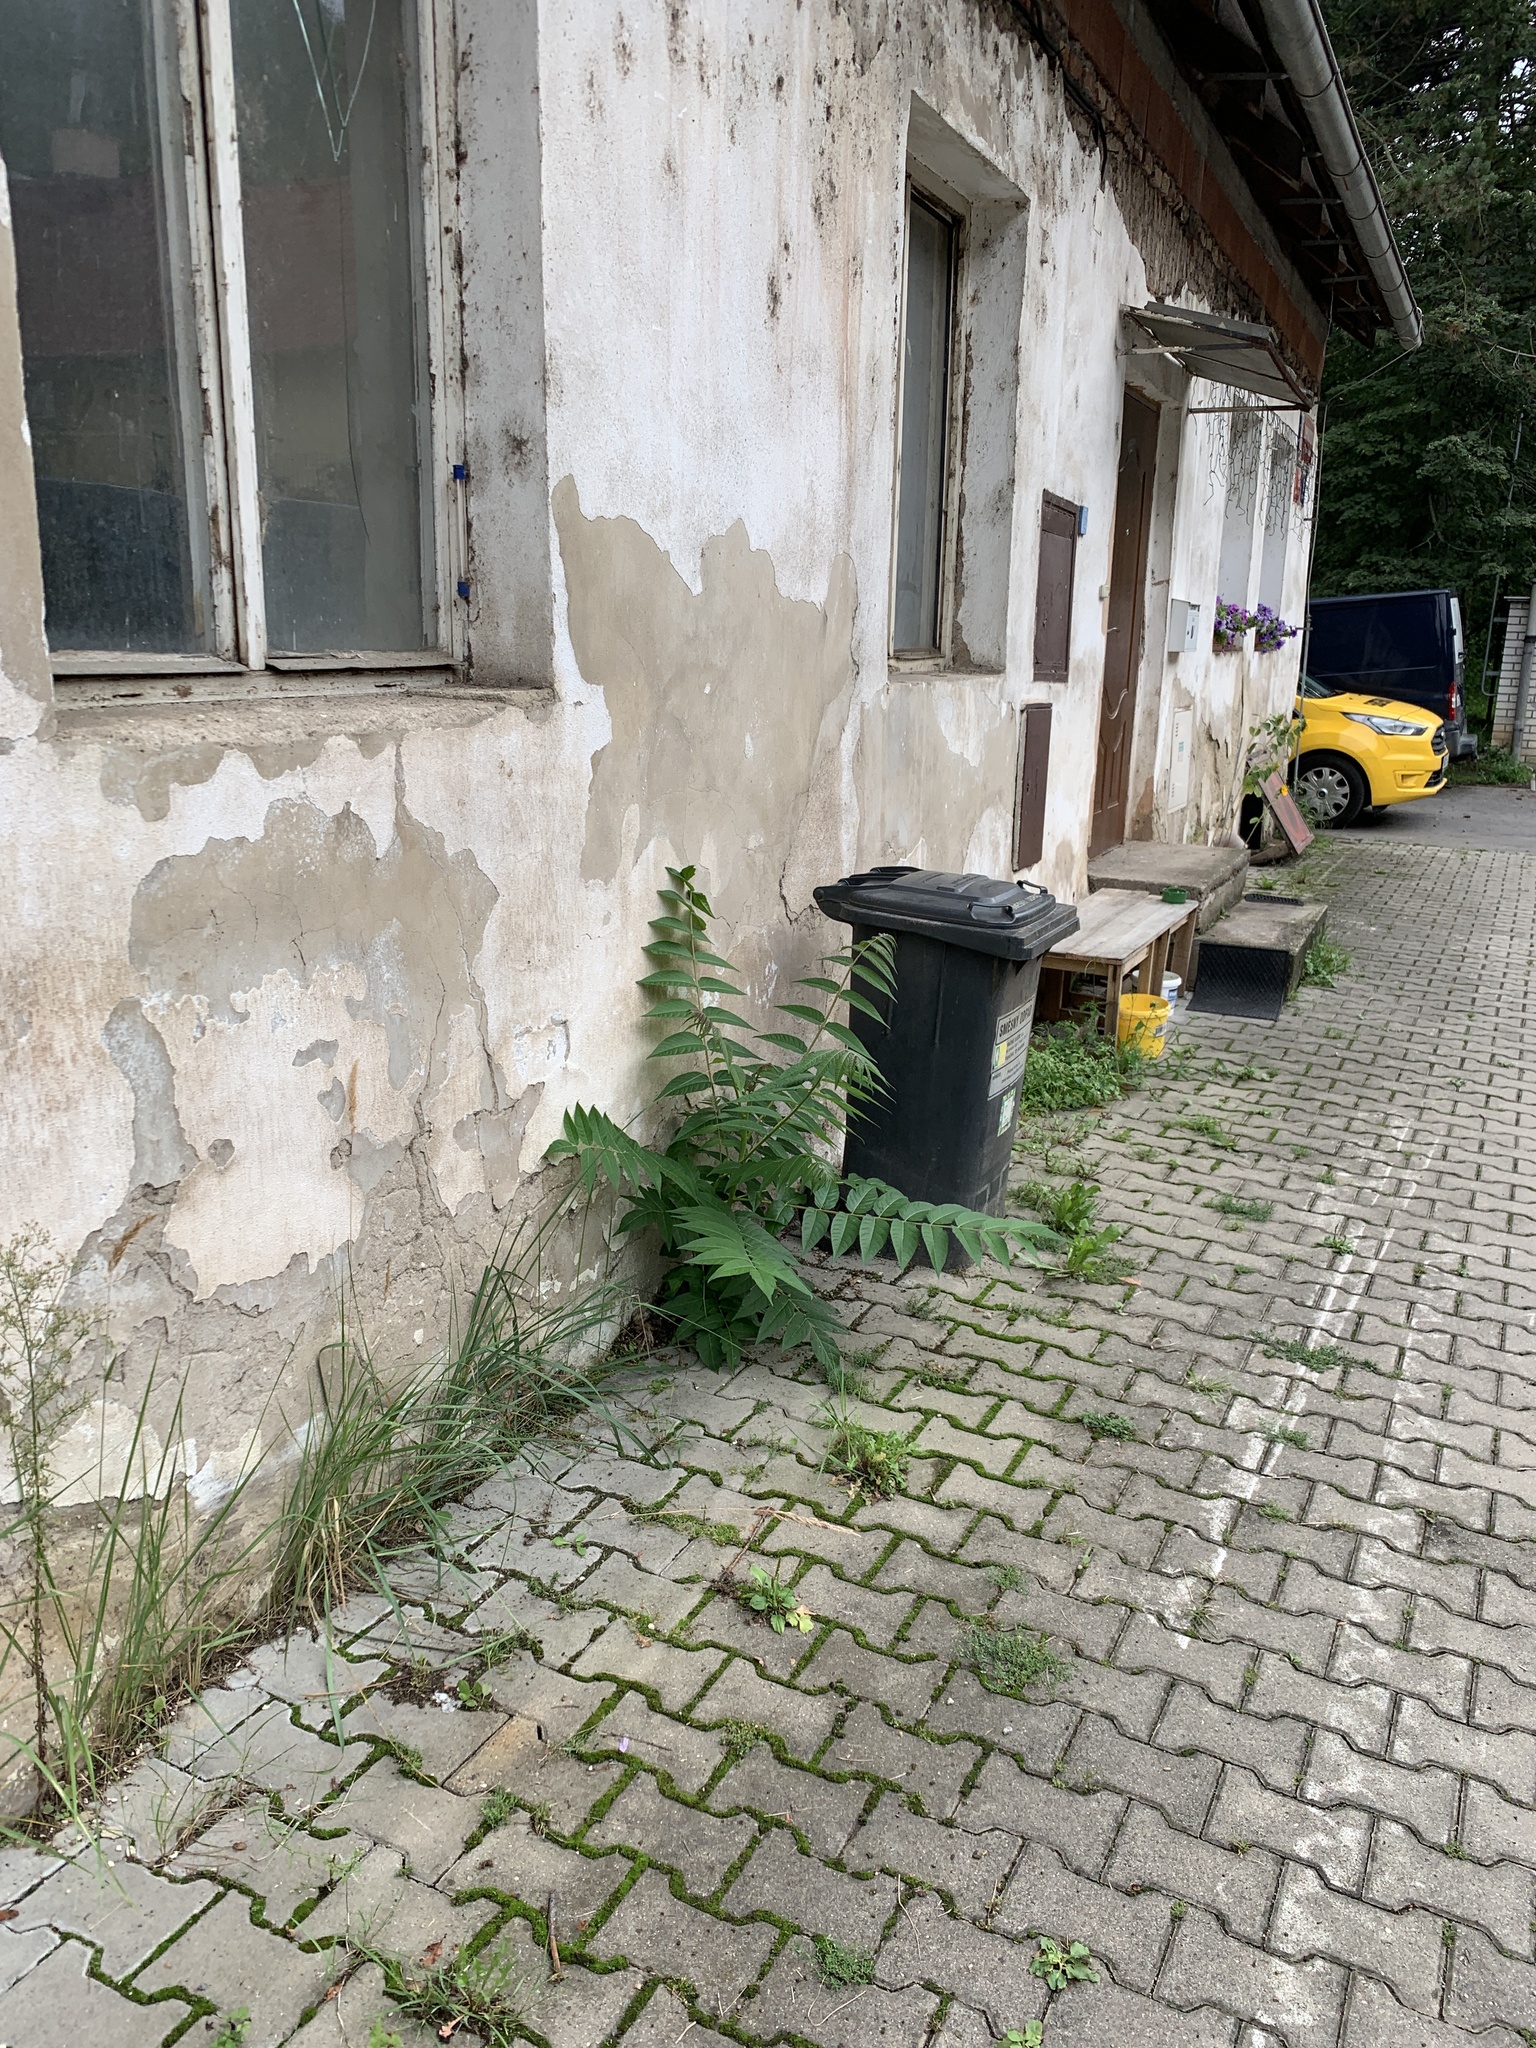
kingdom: Plantae
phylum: Tracheophyta
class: Magnoliopsida
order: Sapindales
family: Simaroubaceae
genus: Ailanthus
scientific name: Ailanthus altissima
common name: Tree-of-heaven
